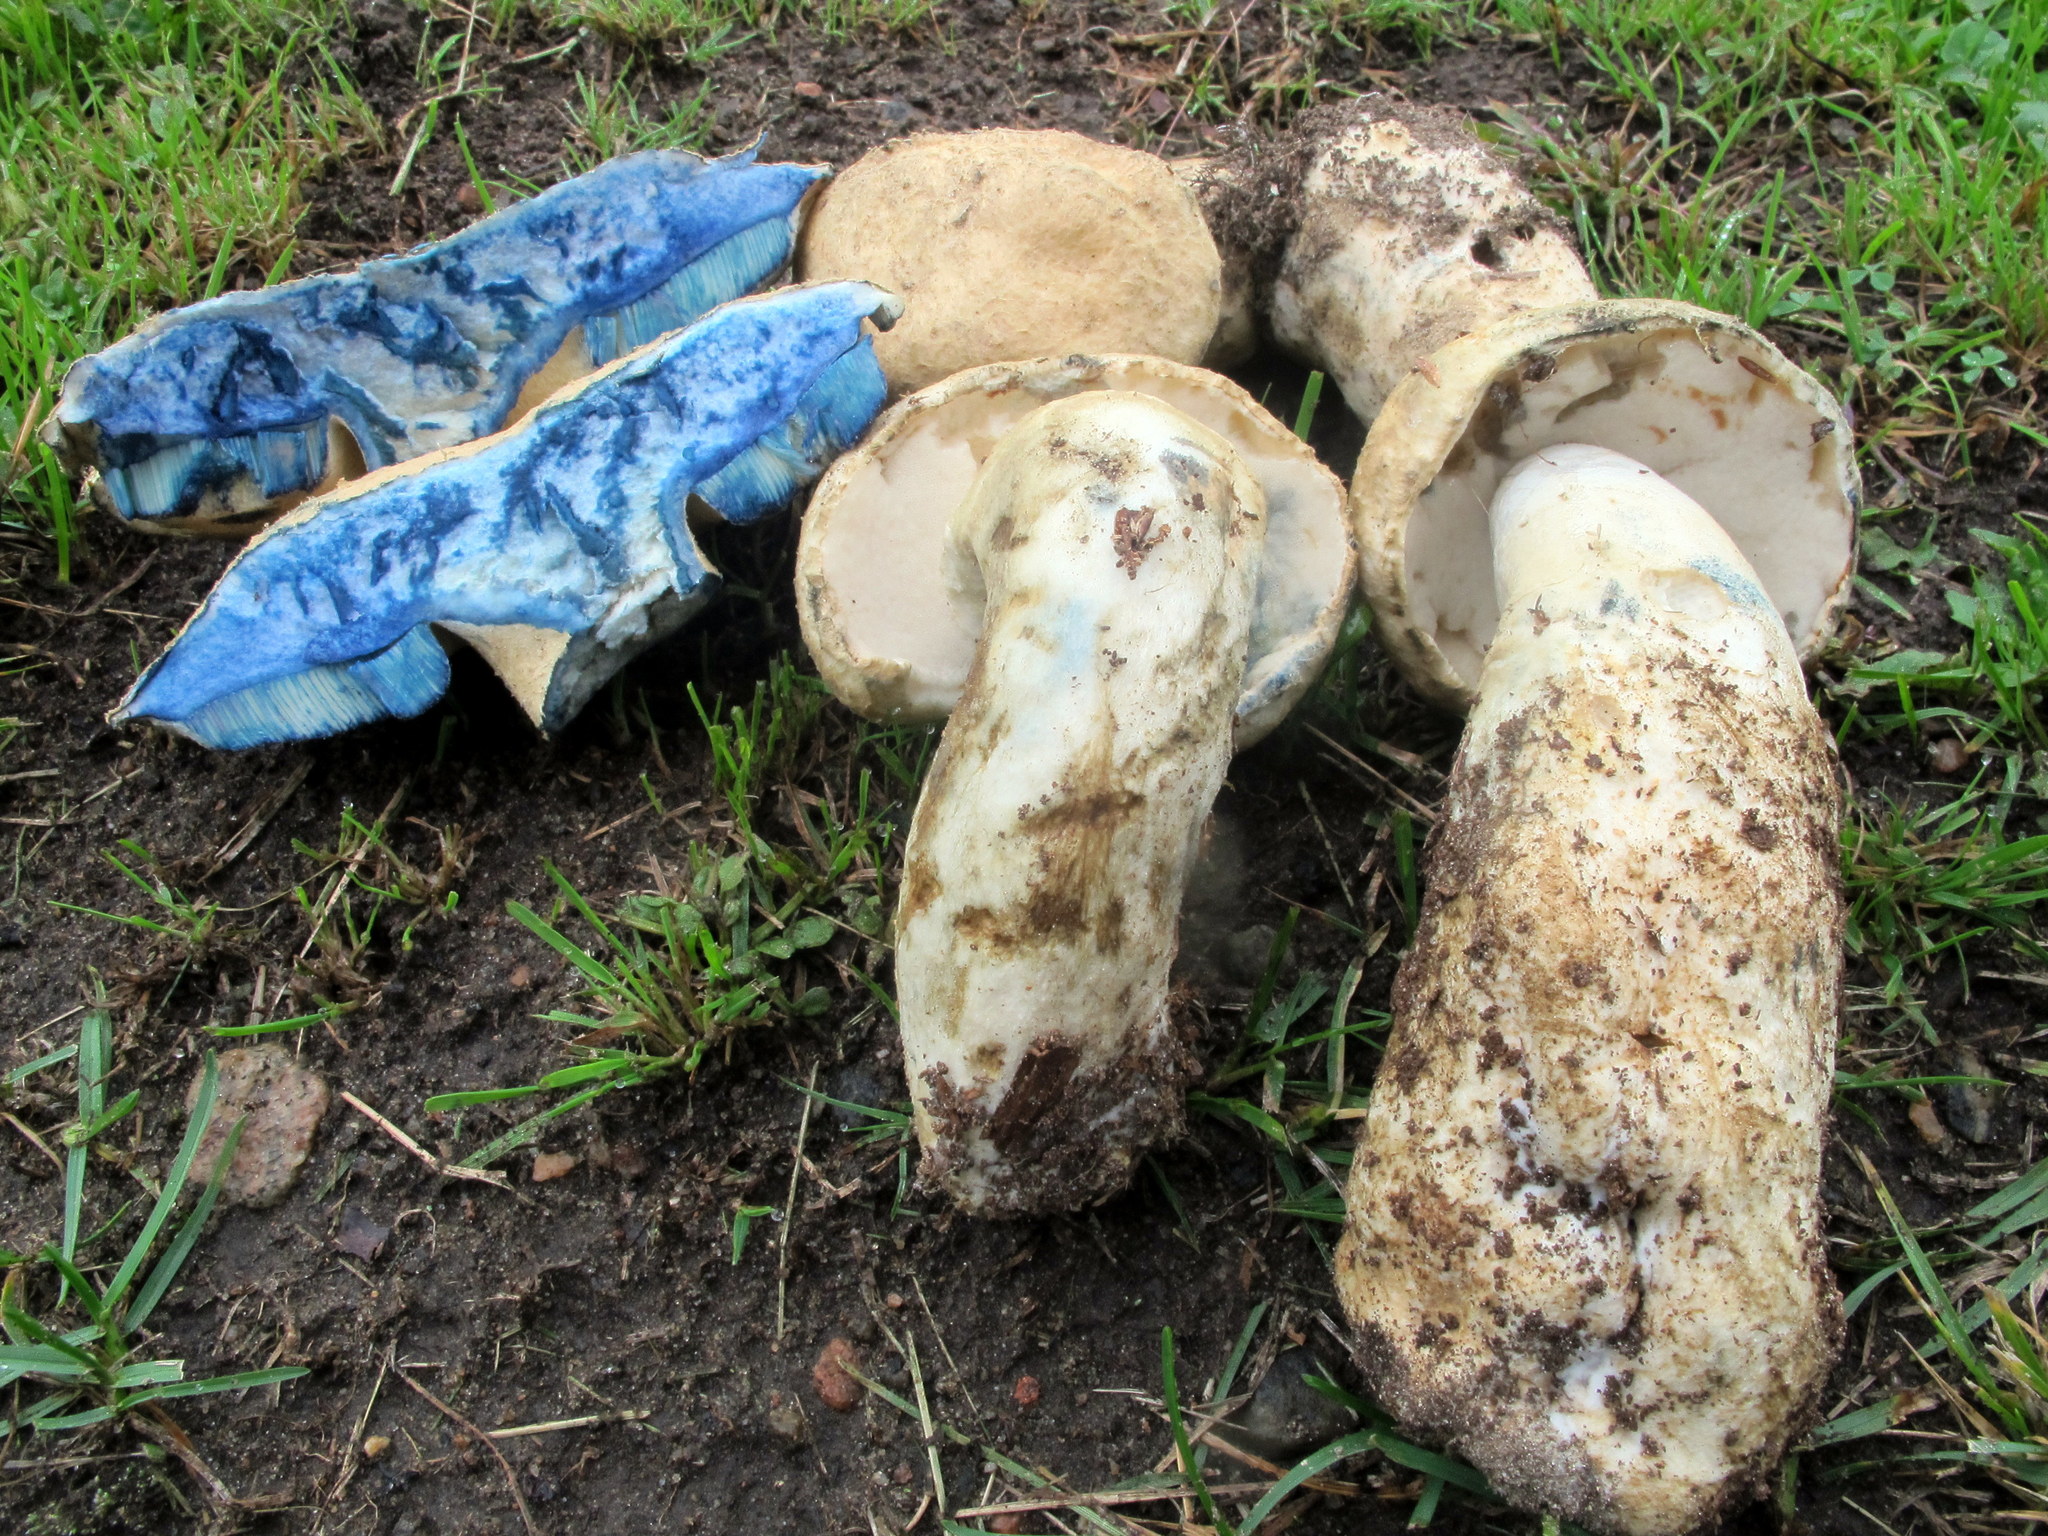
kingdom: Fungi
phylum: Basidiomycota
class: Agaricomycetes
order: Boletales
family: Gyroporaceae
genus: Gyroporus
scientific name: Gyroporus cyanescens
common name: Cornflower bolete
